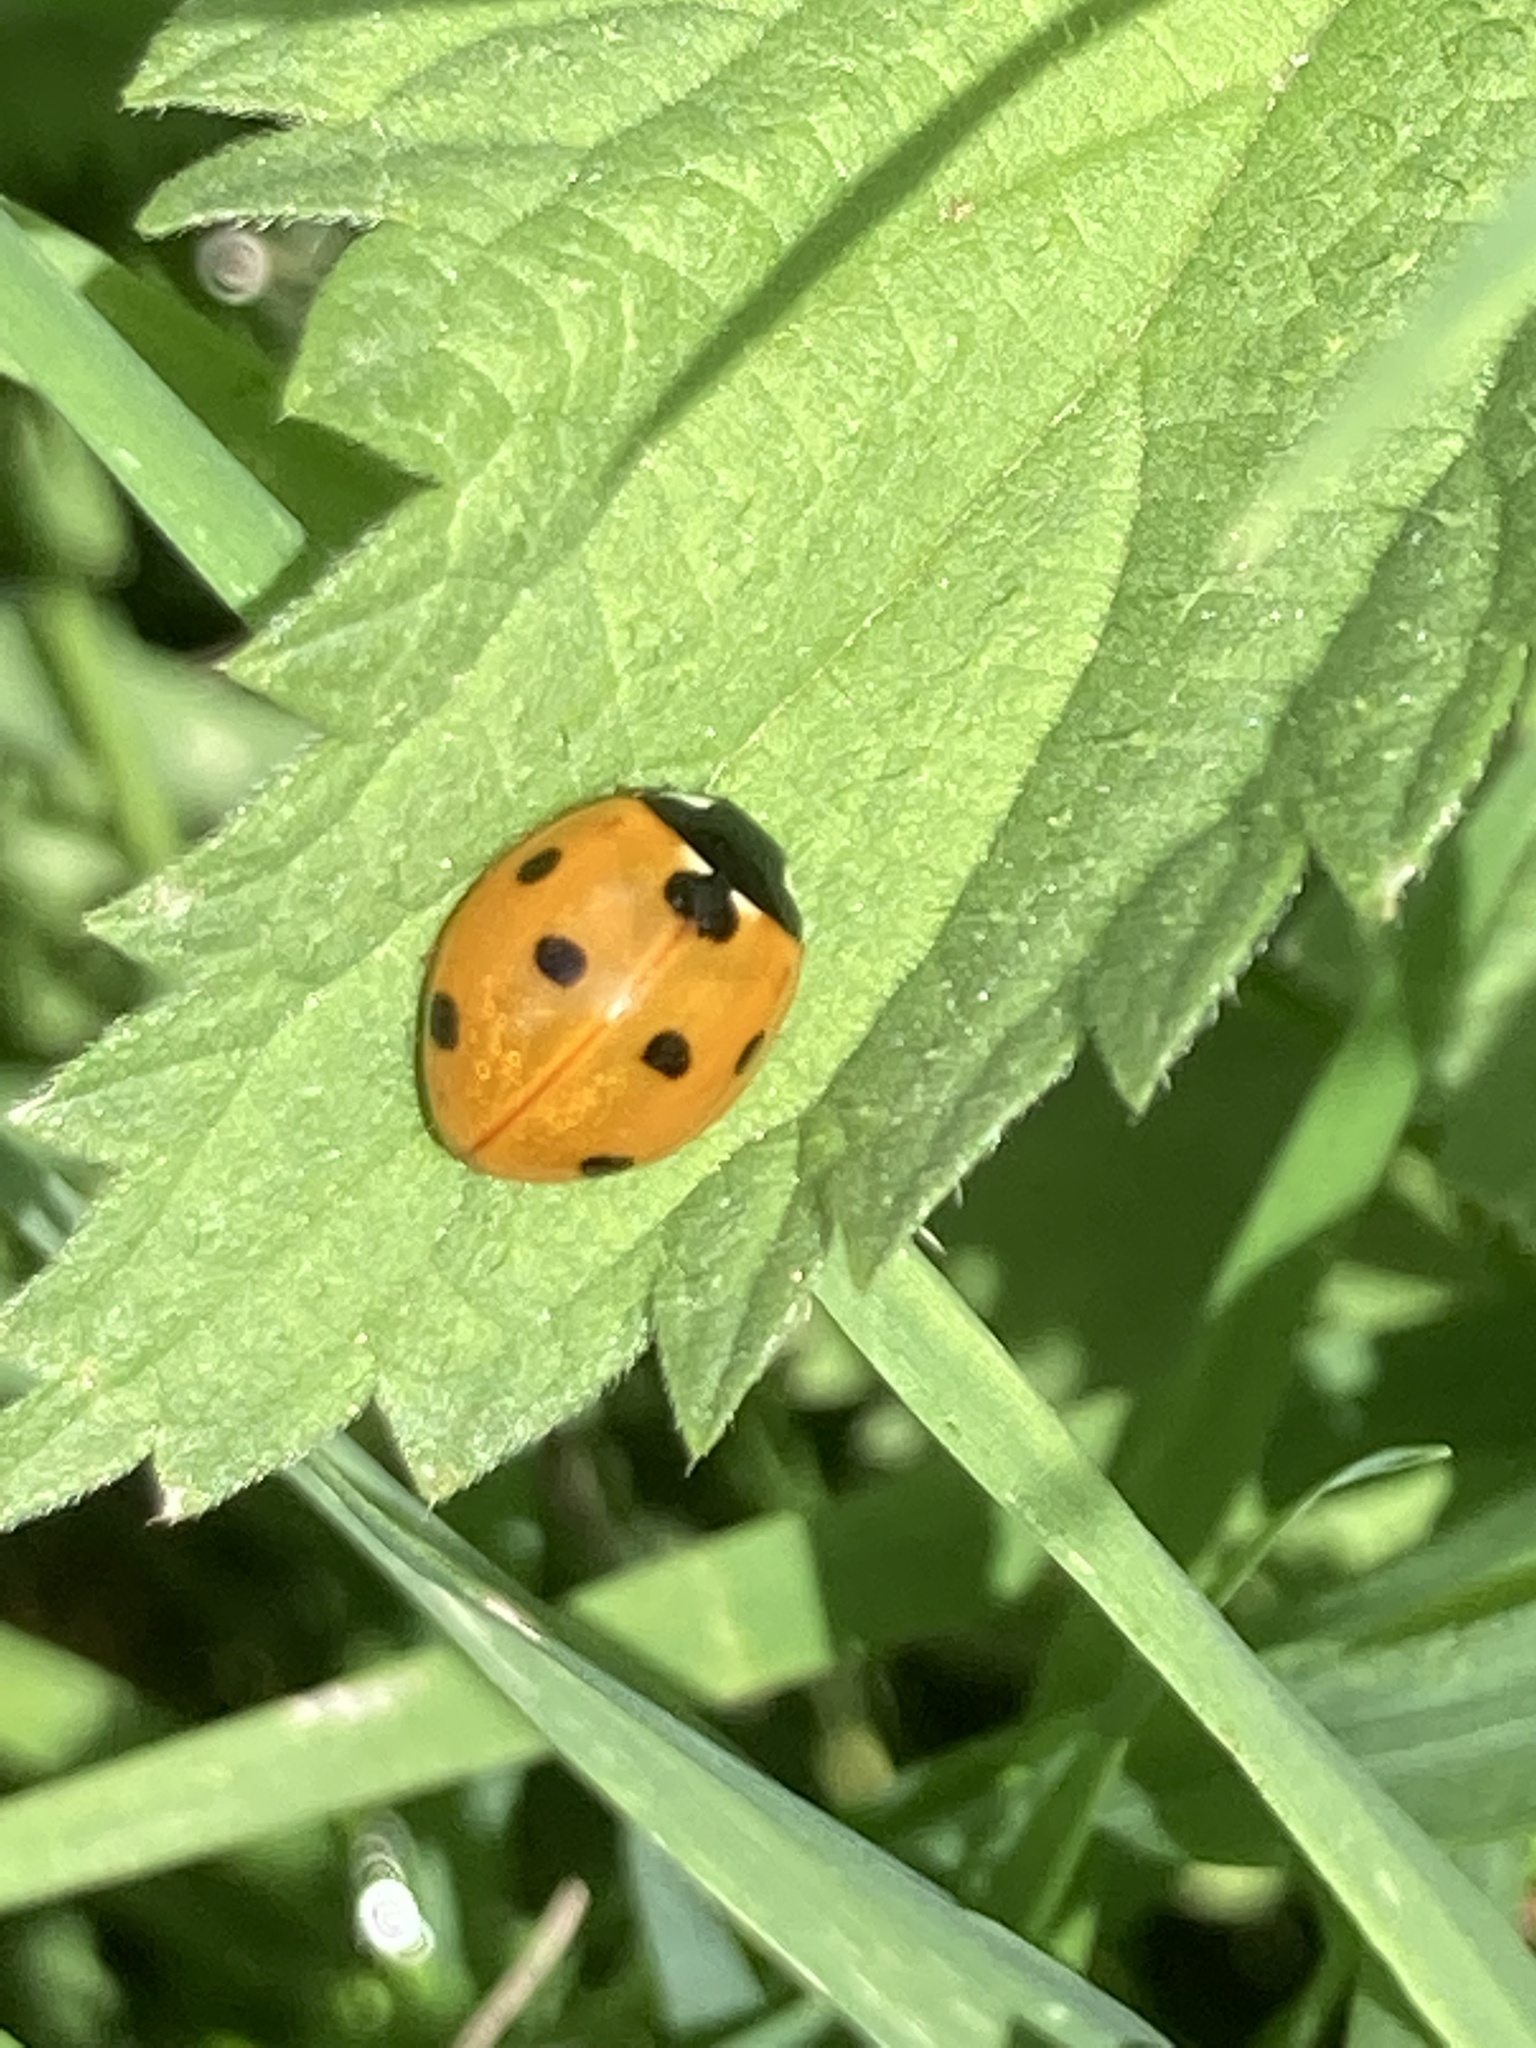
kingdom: Animalia
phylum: Arthropoda
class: Insecta
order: Coleoptera
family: Coccinellidae
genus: Coccinella
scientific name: Coccinella septempunctata
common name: Sevenspotted lady beetle
